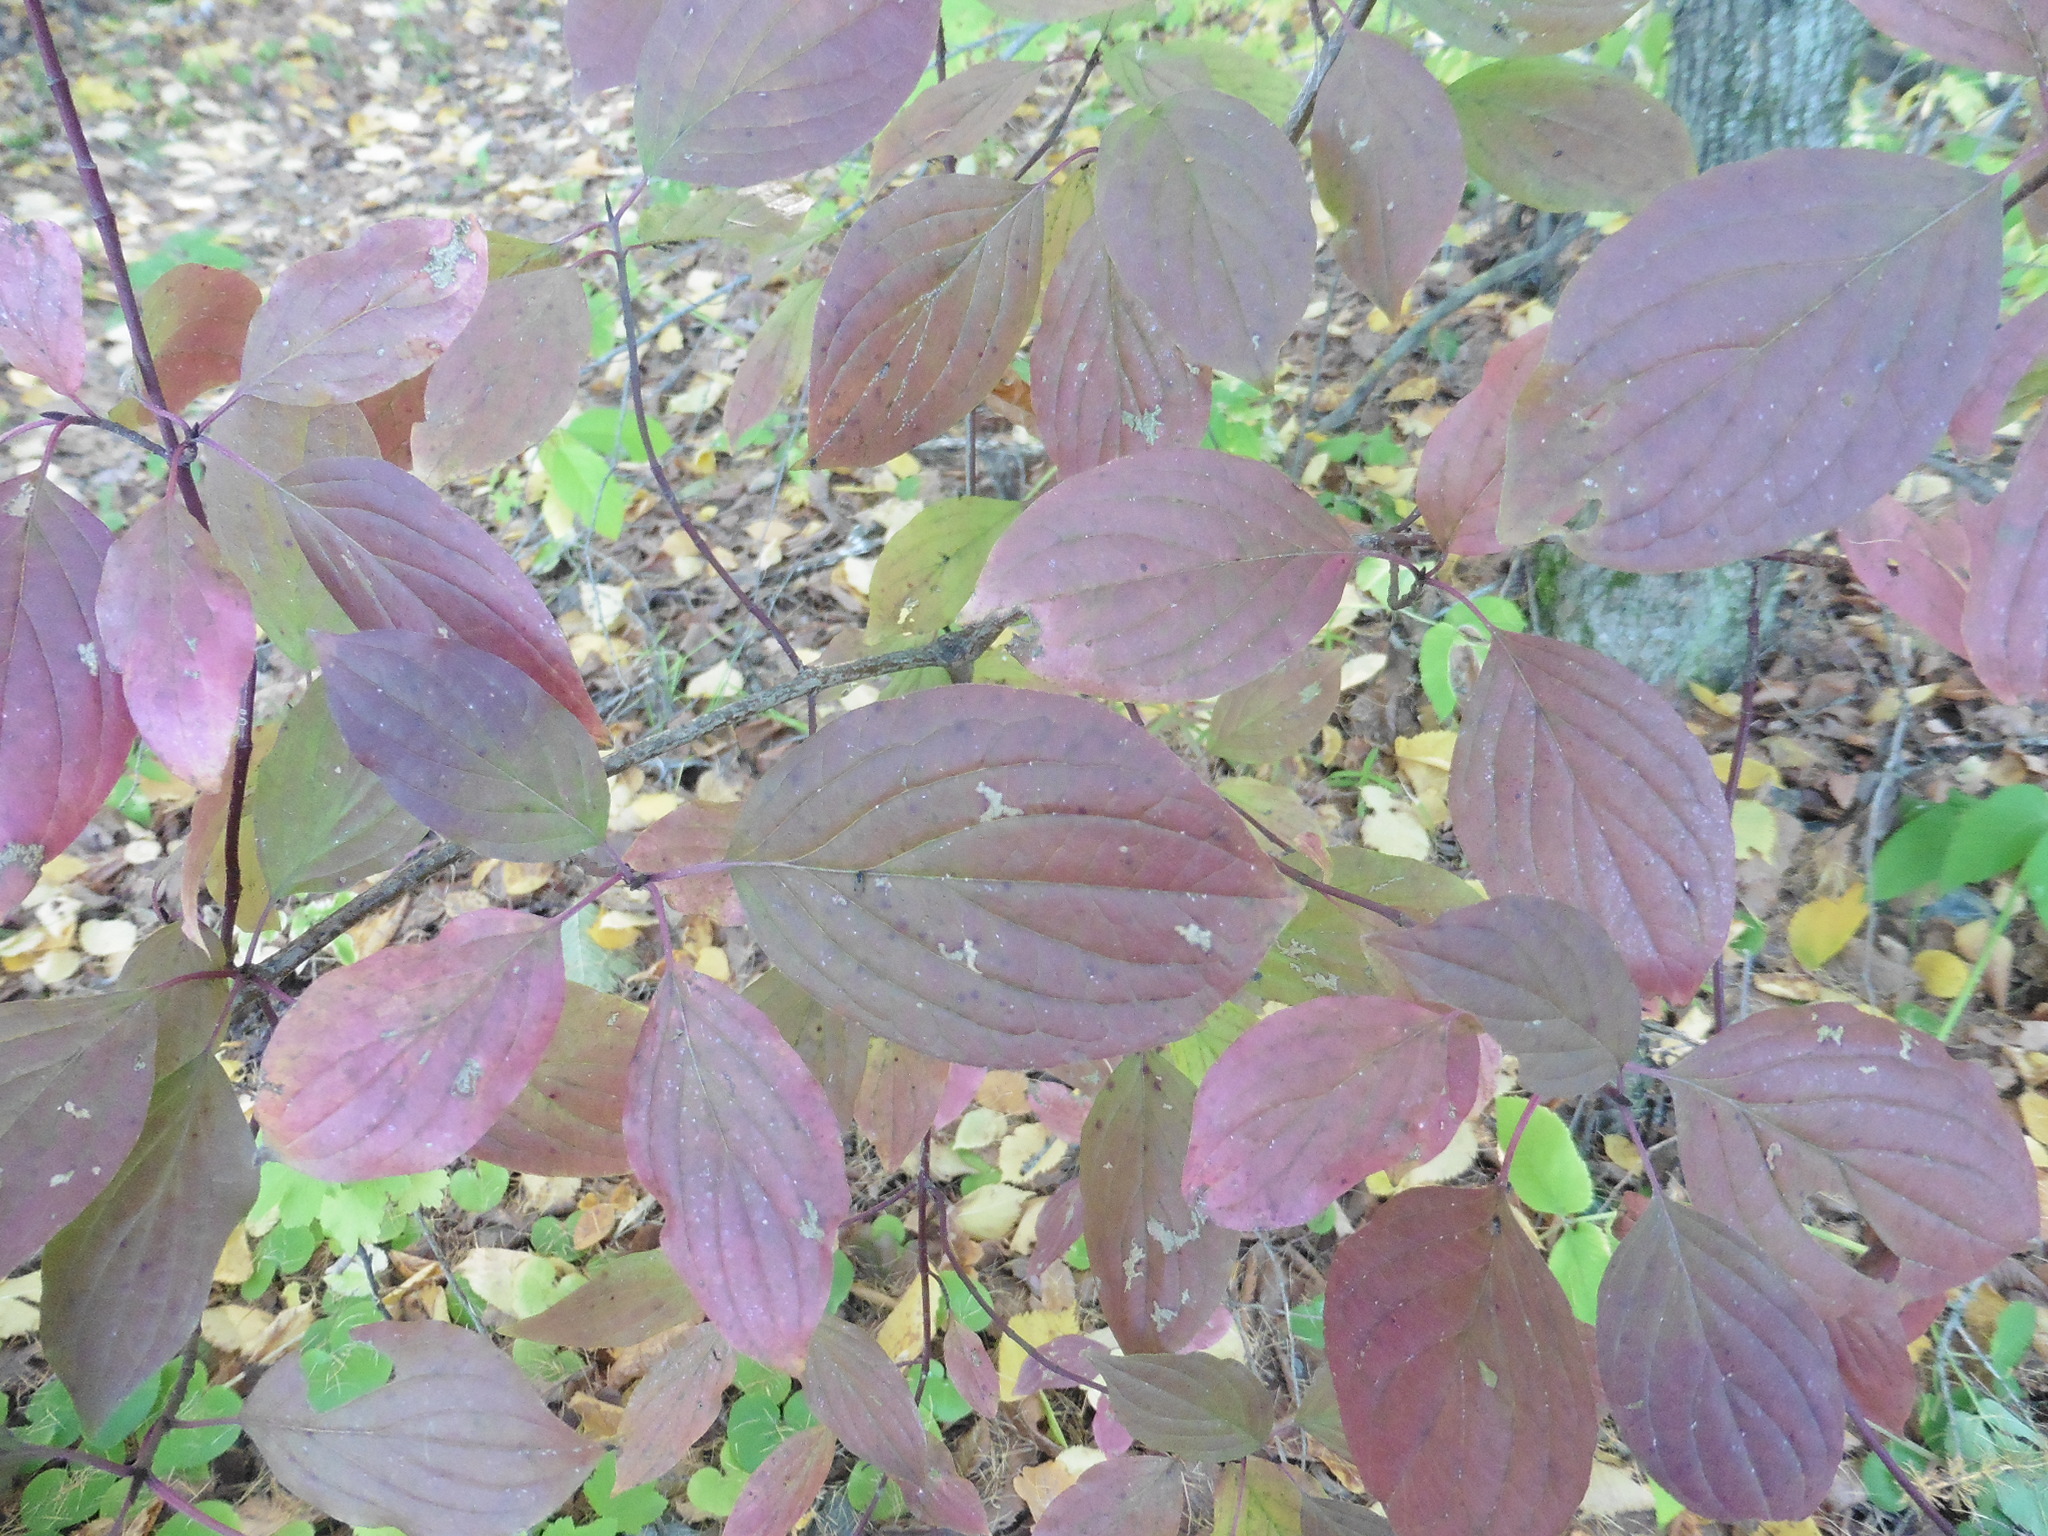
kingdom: Plantae
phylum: Tracheophyta
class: Magnoliopsida
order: Cornales
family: Cornaceae
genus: Cornus
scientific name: Cornus sanguinea
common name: Dogwood
